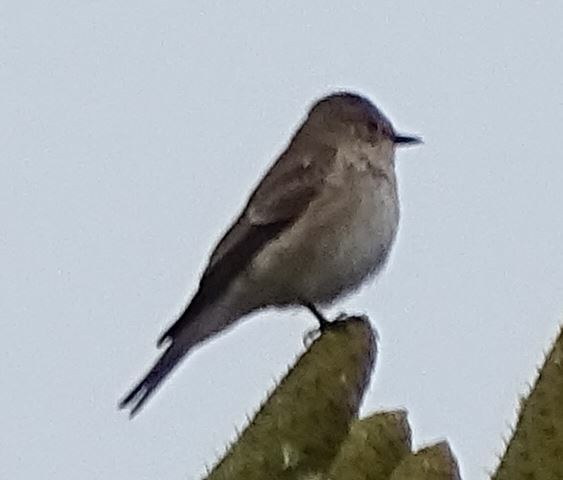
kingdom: Animalia
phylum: Chordata
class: Aves
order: Passeriformes
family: Muscicapidae
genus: Muscicapa
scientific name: Muscicapa striata
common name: Spotted flycatcher
